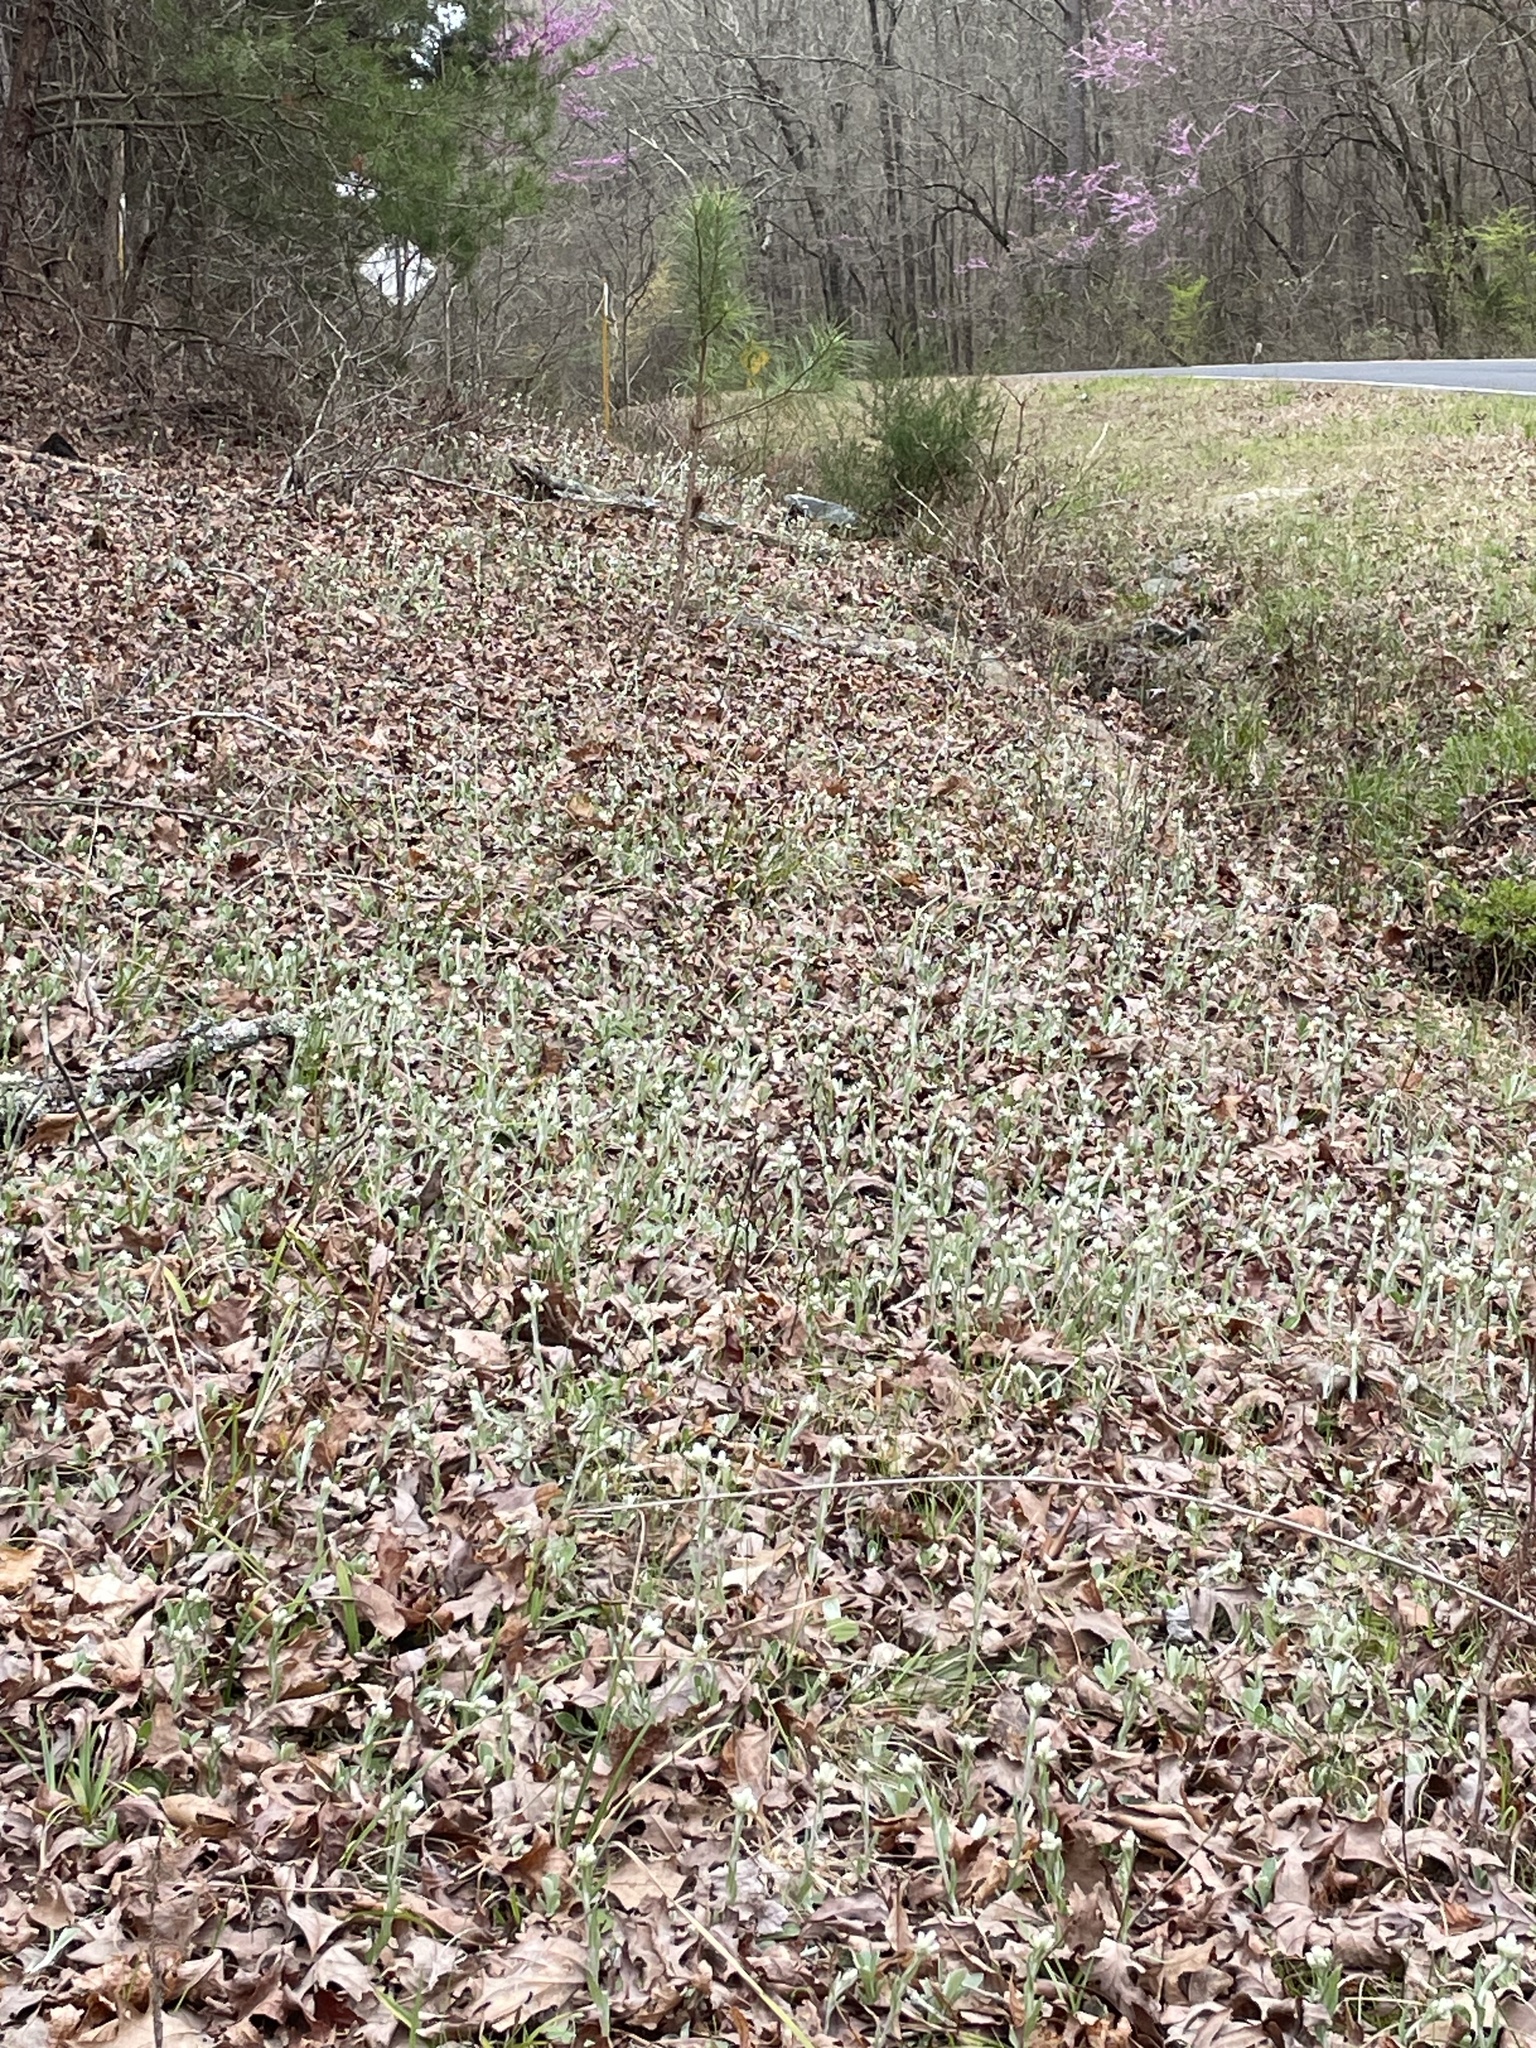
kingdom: Plantae
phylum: Tracheophyta
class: Magnoliopsida
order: Asterales
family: Asteraceae
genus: Antennaria
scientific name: Antennaria parlinii
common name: Parlin's pussytoes
